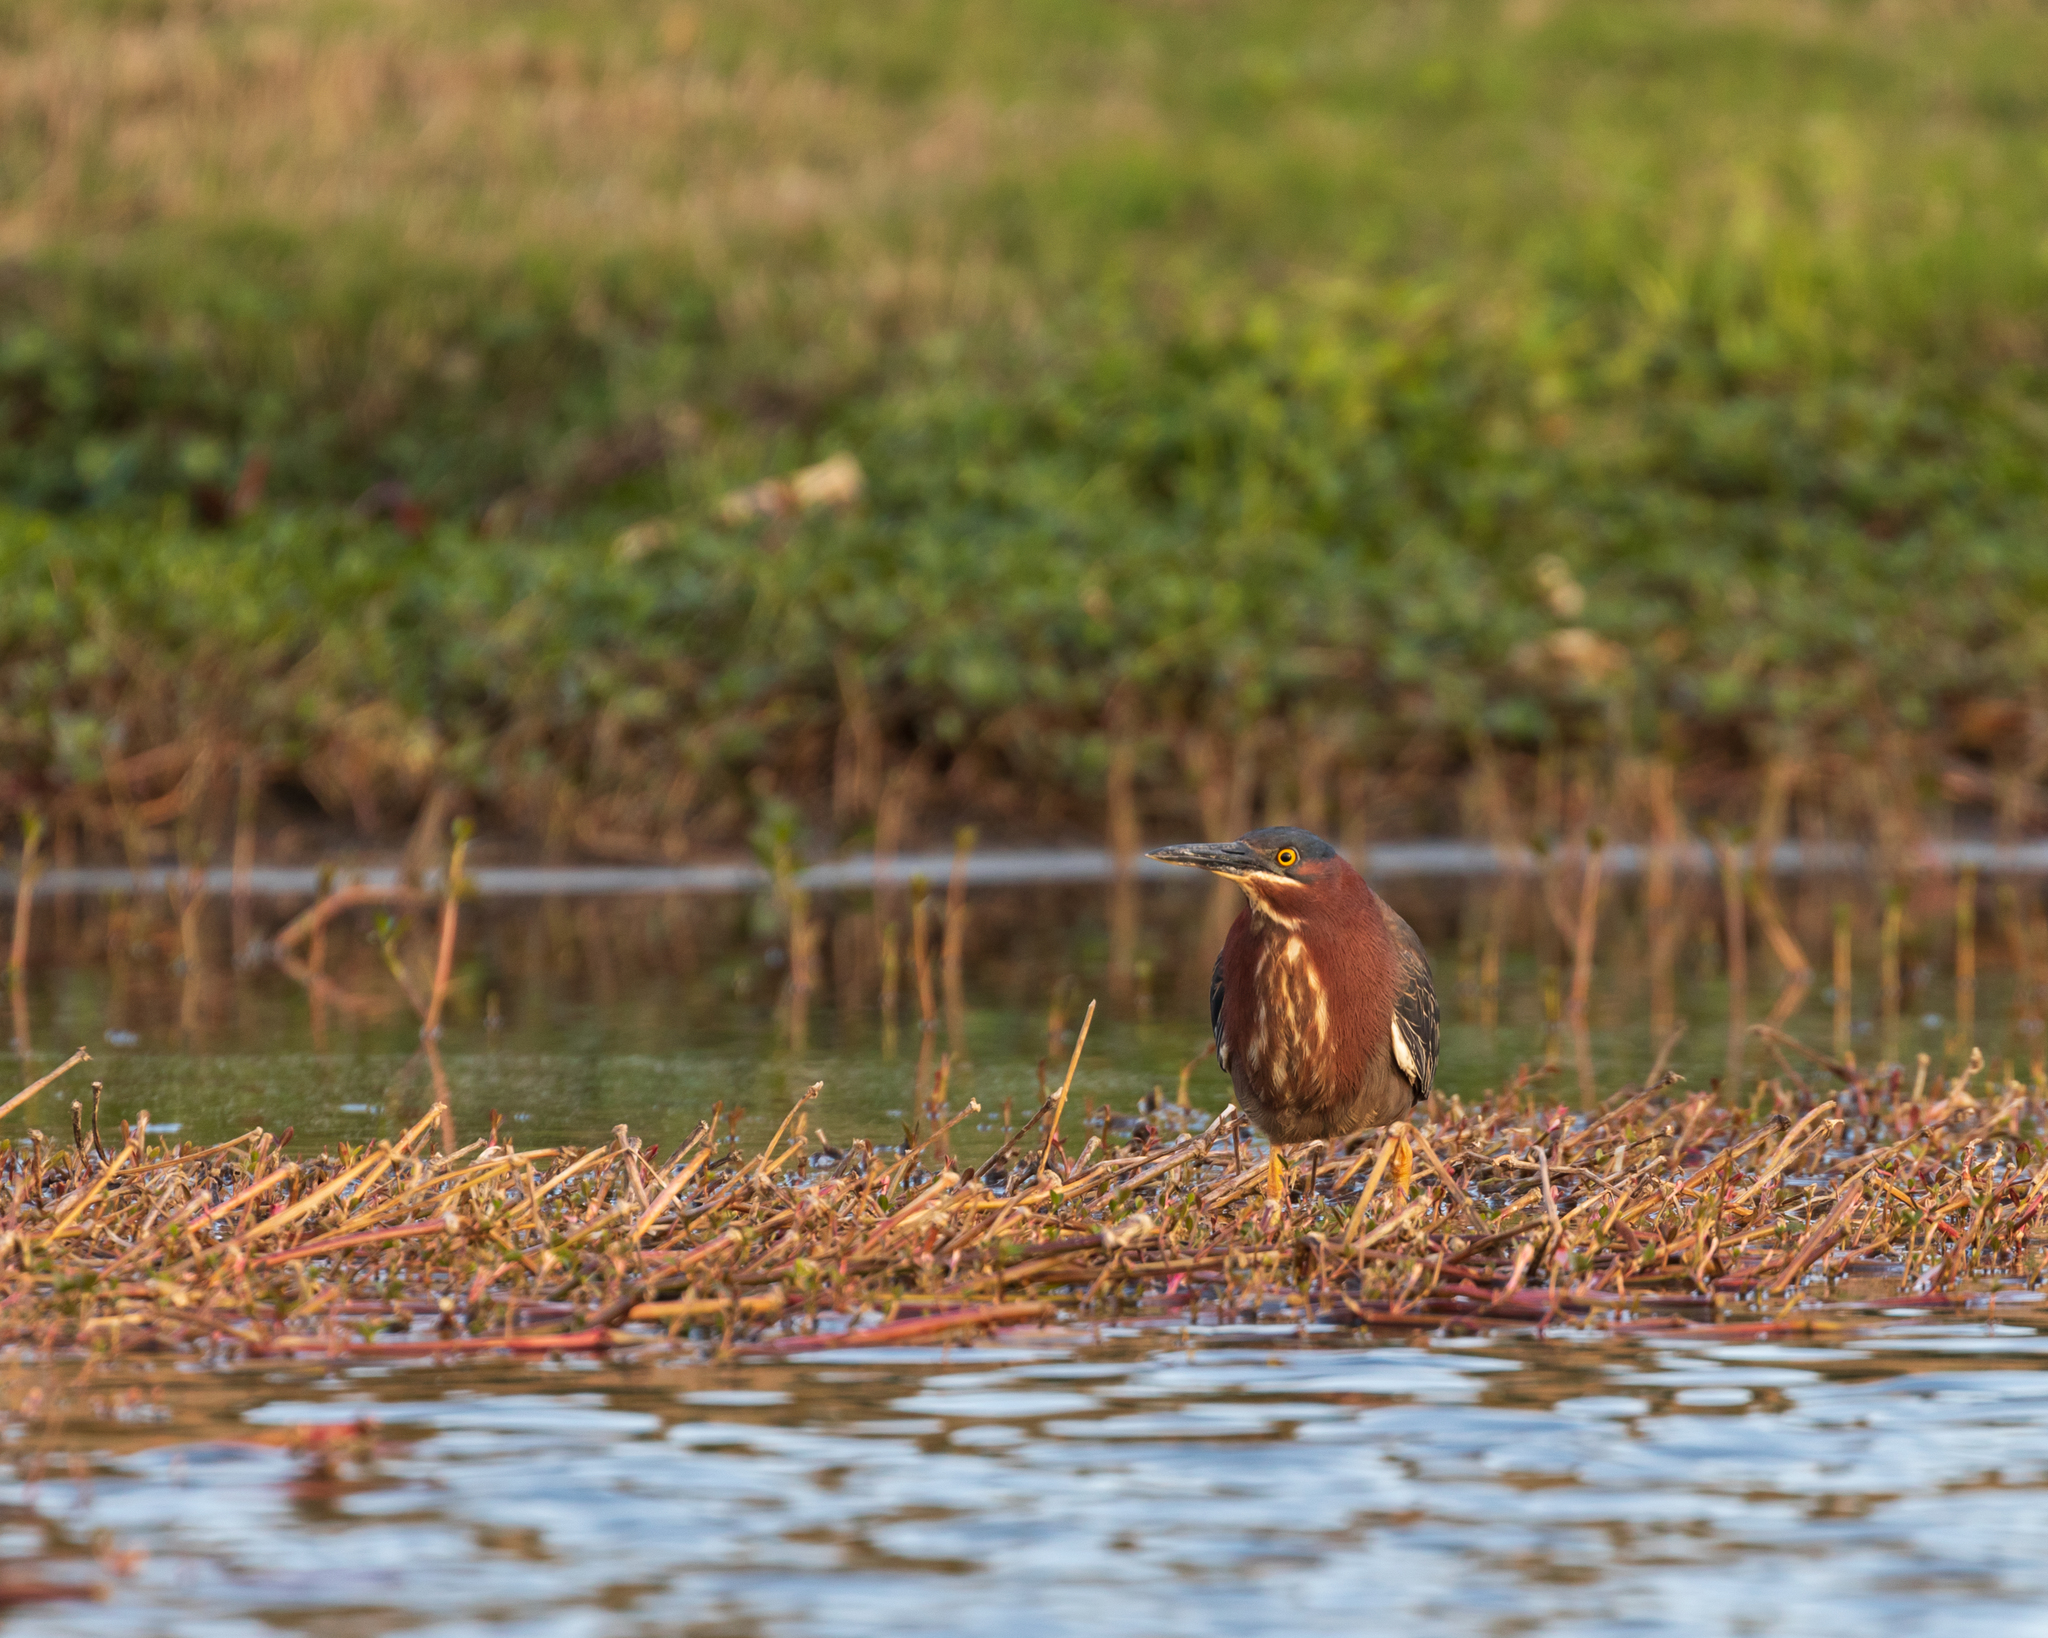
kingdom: Animalia
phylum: Chordata
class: Aves
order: Pelecaniformes
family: Ardeidae
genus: Butorides
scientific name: Butorides virescens
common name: Green heron
